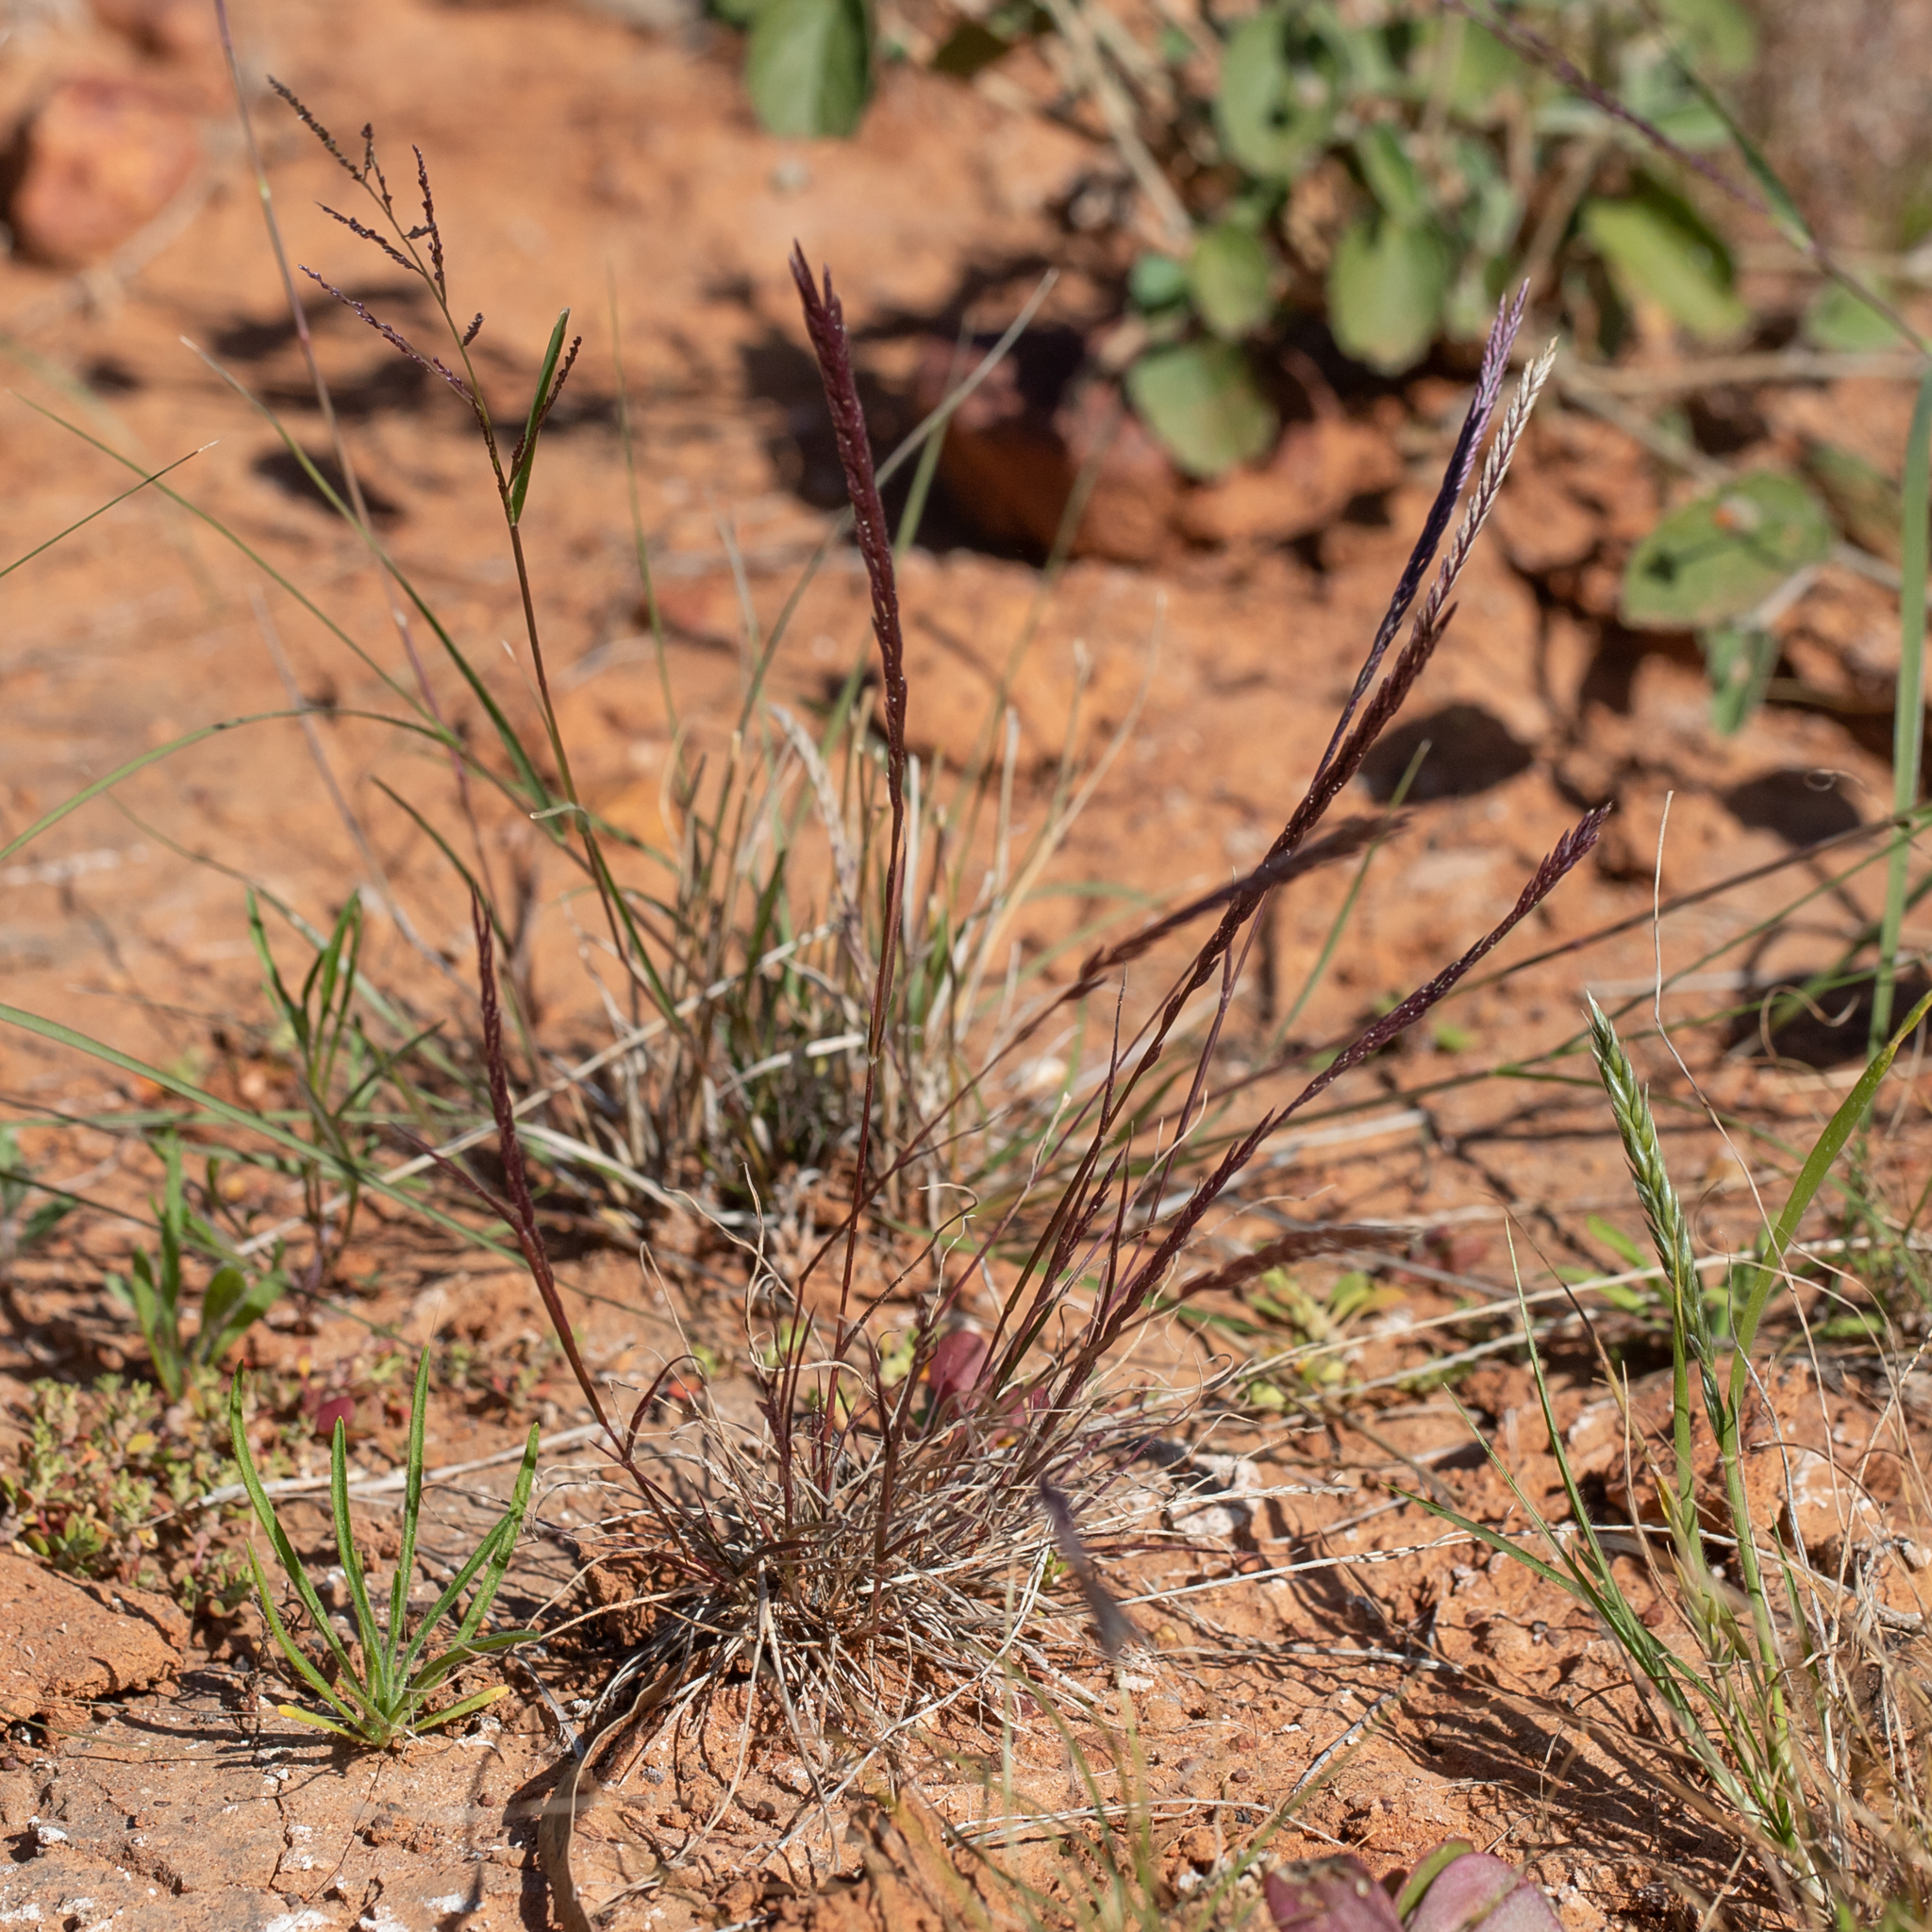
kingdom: Plantae
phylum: Tracheophyta
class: Liliopsida
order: Poales
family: Poaceae
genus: Tripogonella
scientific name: Tripogonella loliiformis
